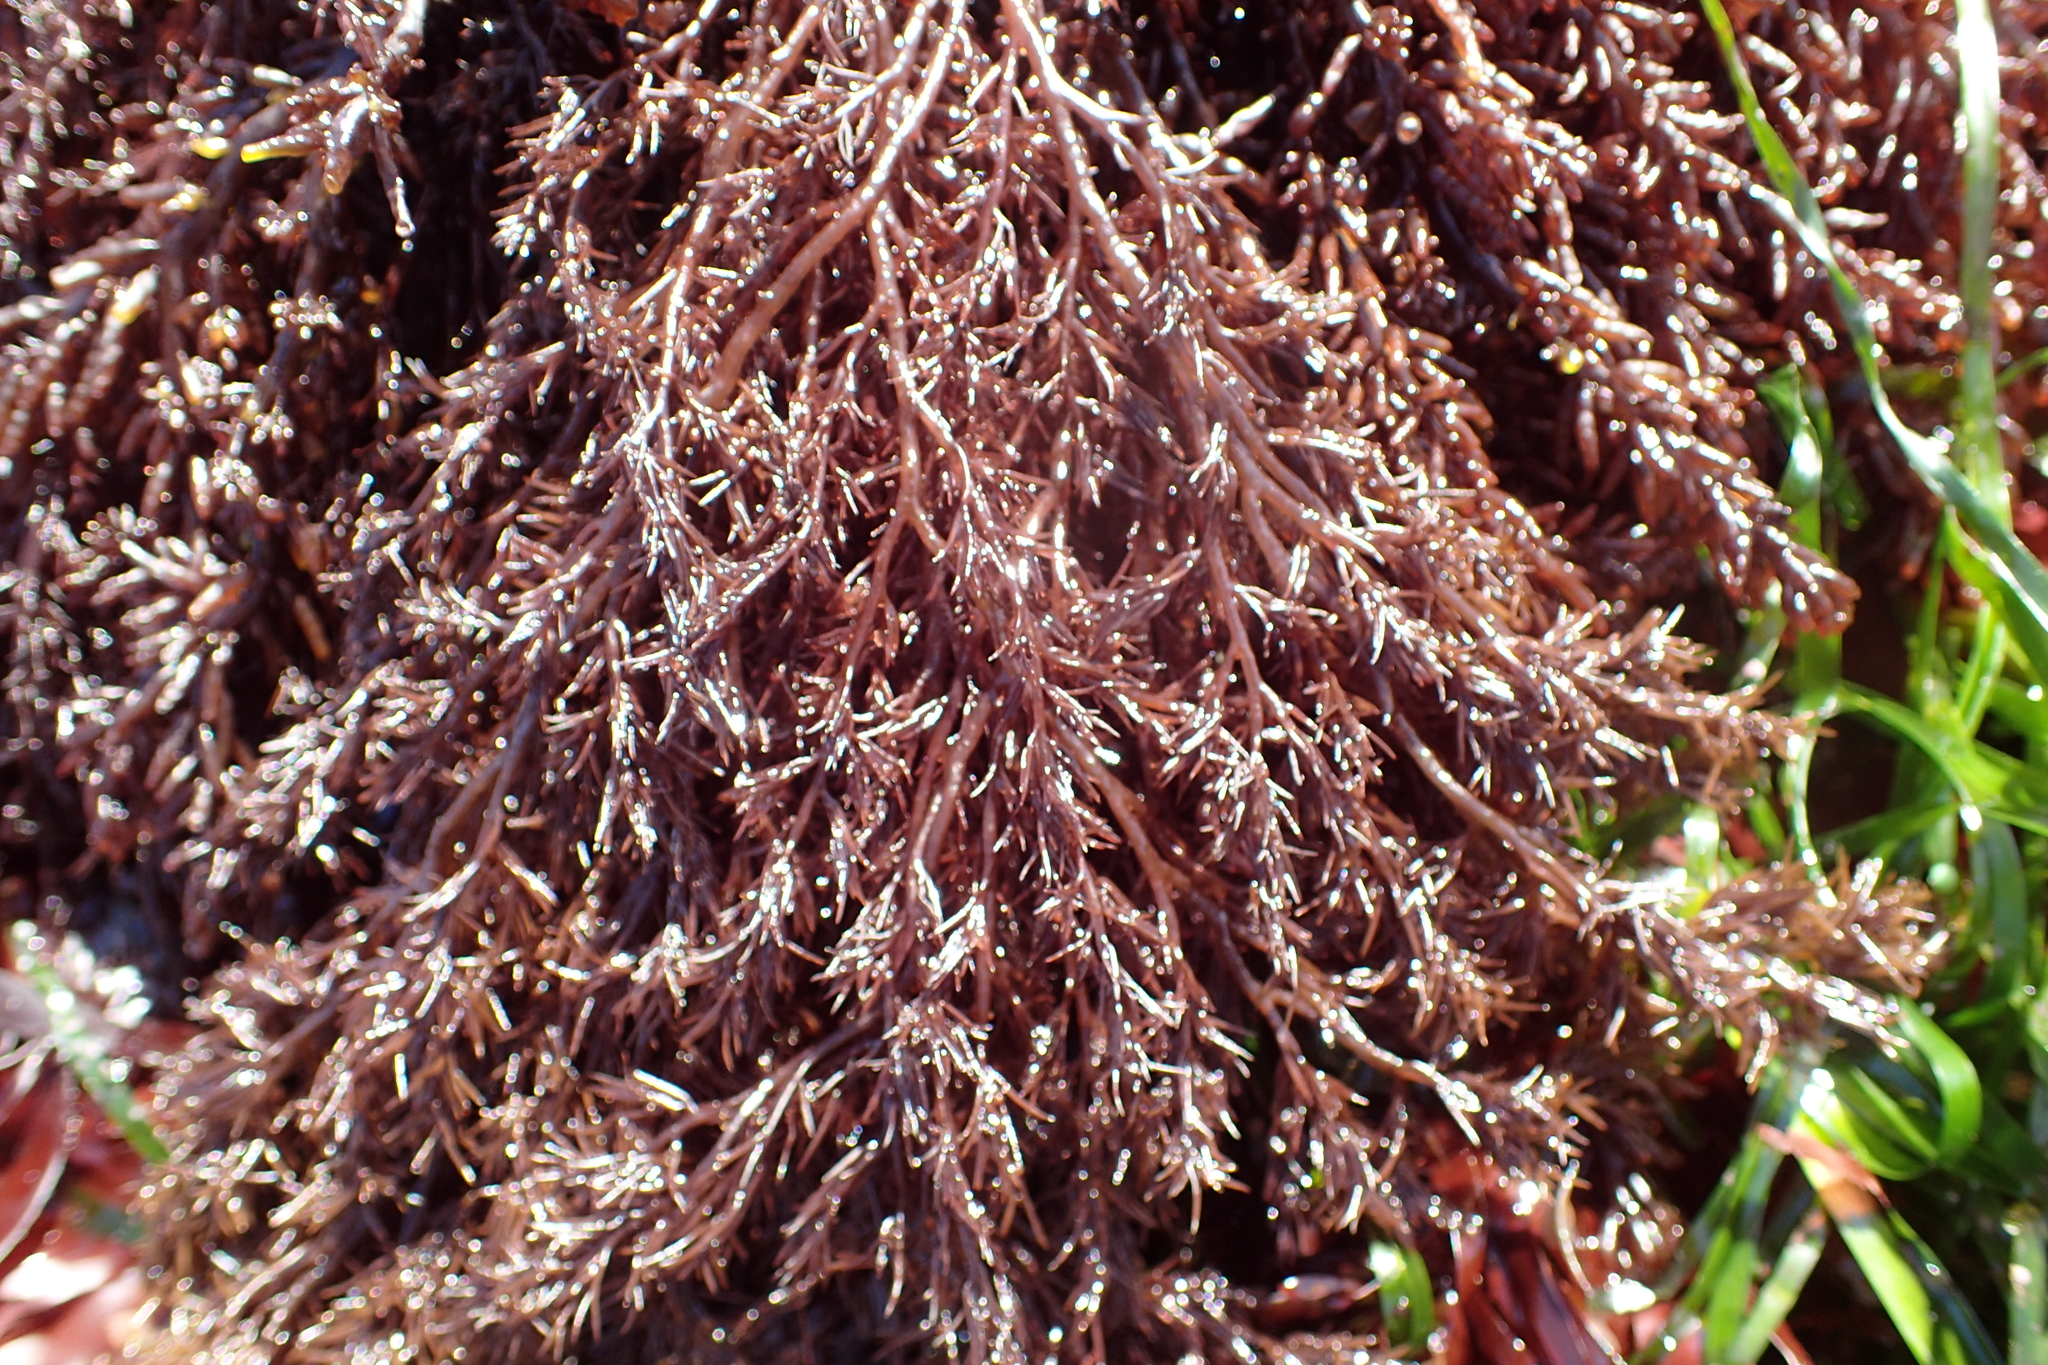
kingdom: Plantae
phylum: Rhodophyta
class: Florideophyceae
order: Ceramiales
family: Rhodomelaceae
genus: Odonthalia
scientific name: Odonthalia floccosa
